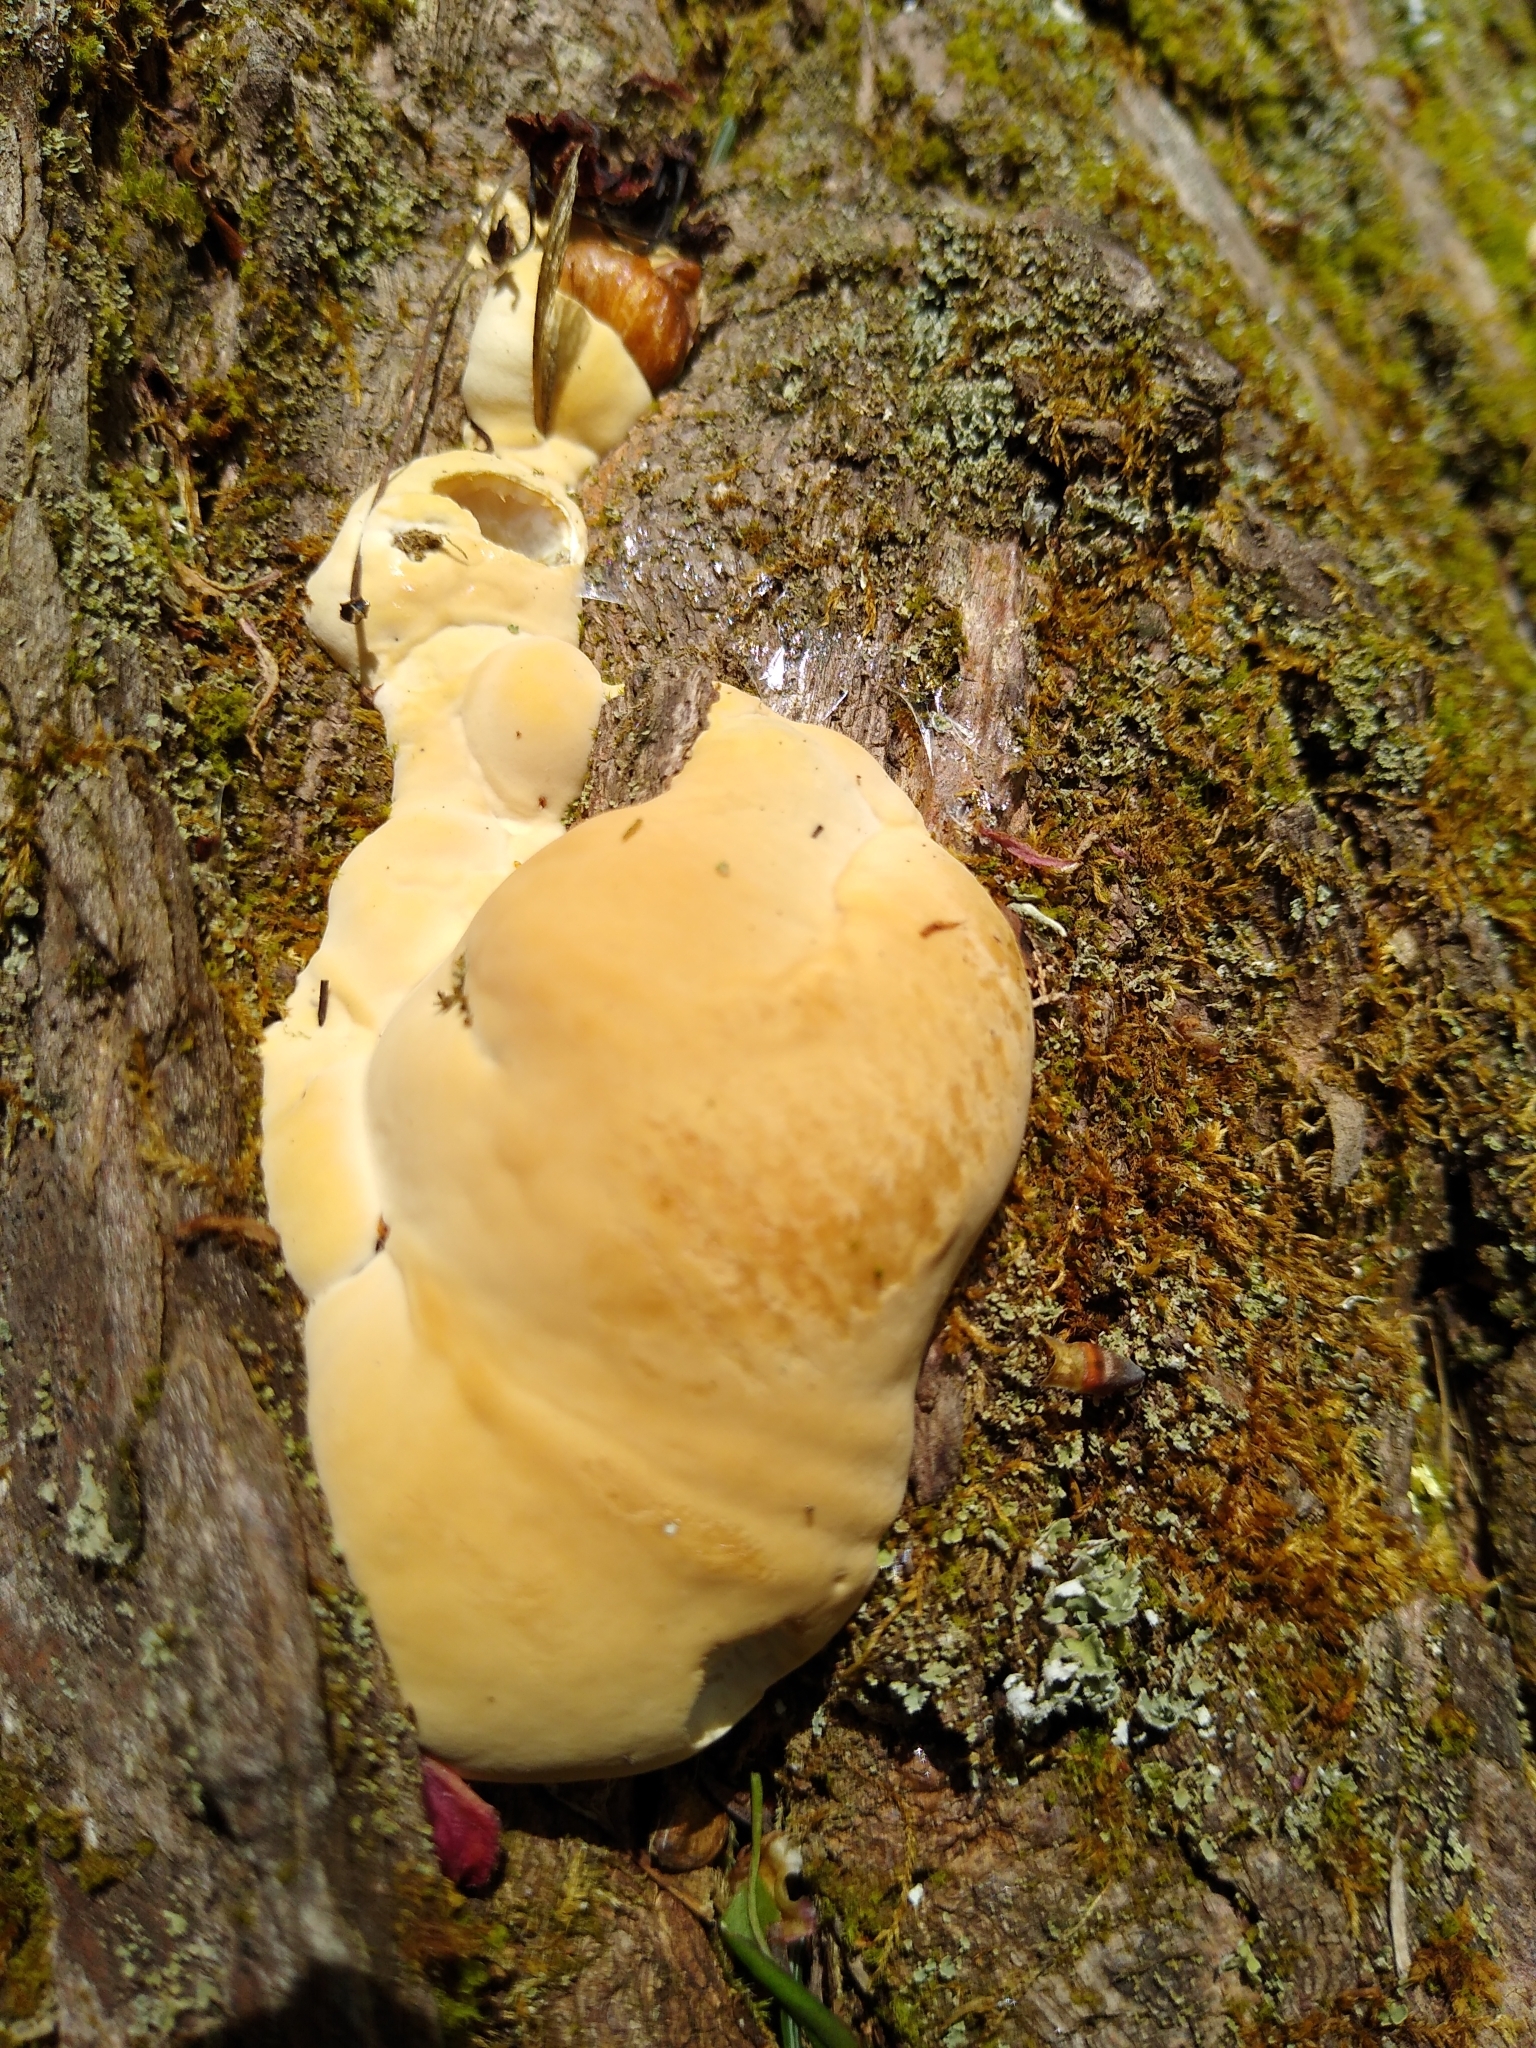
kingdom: Fungi
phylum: Basidiomycota
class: Agaricomycetes
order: Polyporales
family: Polyporaceae
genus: Ganoderma
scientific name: Ganoderma tsugae
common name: Hemlock varnish shelf
